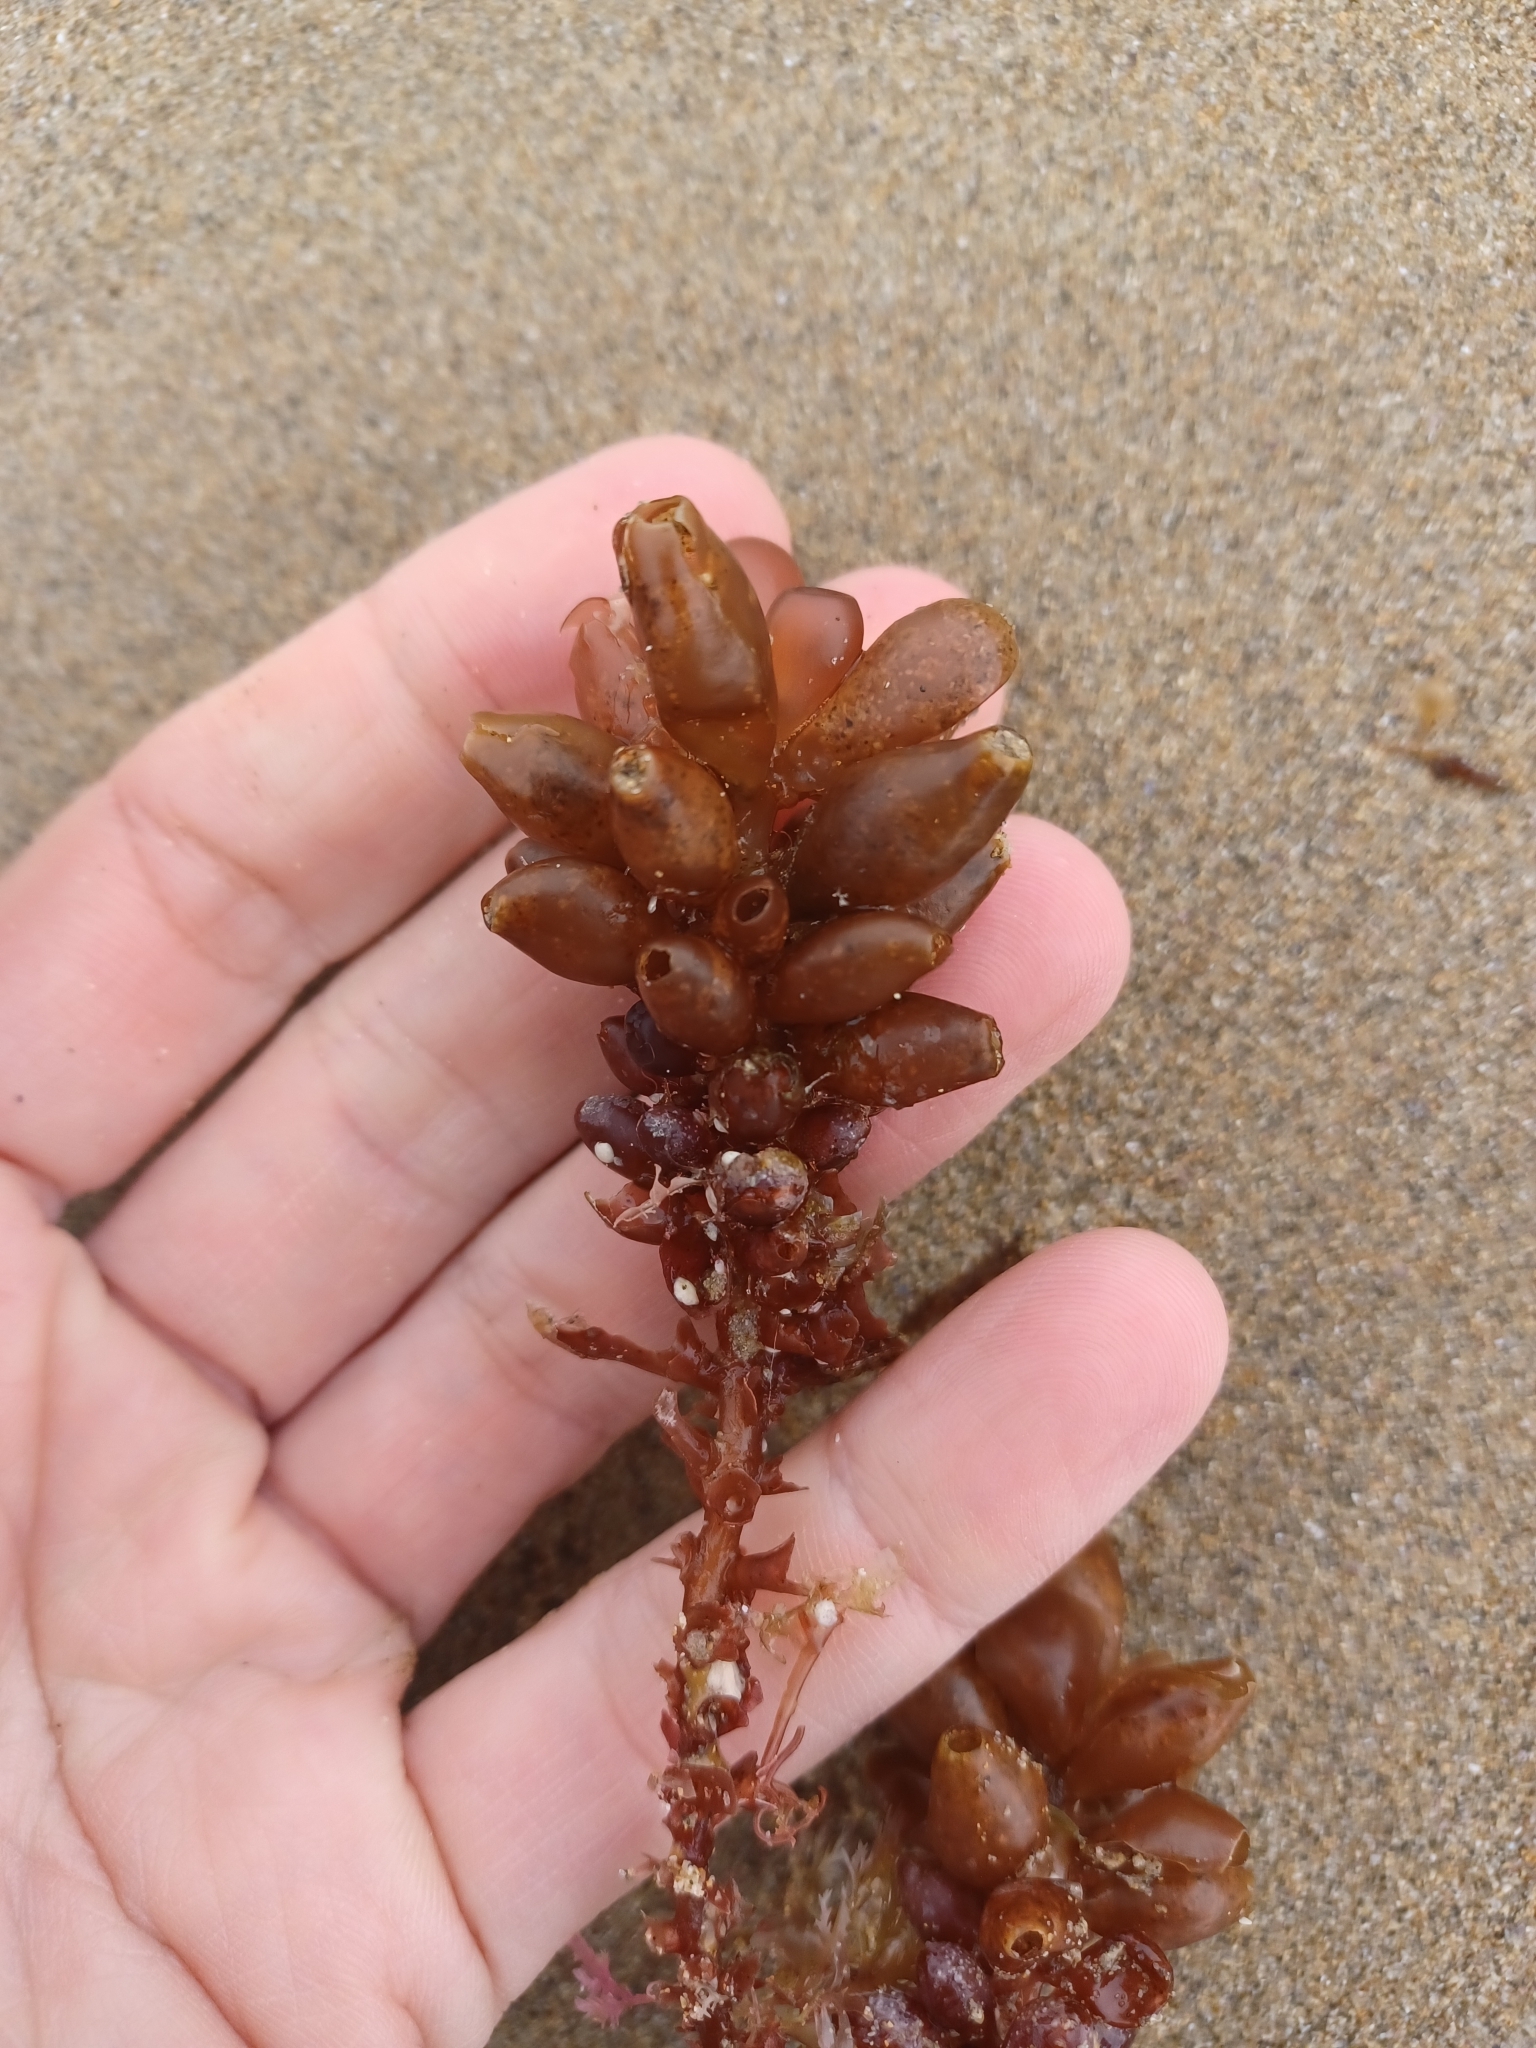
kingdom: Plantae
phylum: Rhodophyta
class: Florideophyceae
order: Rhodymeniales
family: Rhodymeniaceae
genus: Botryocladia
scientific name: Botryocladia
